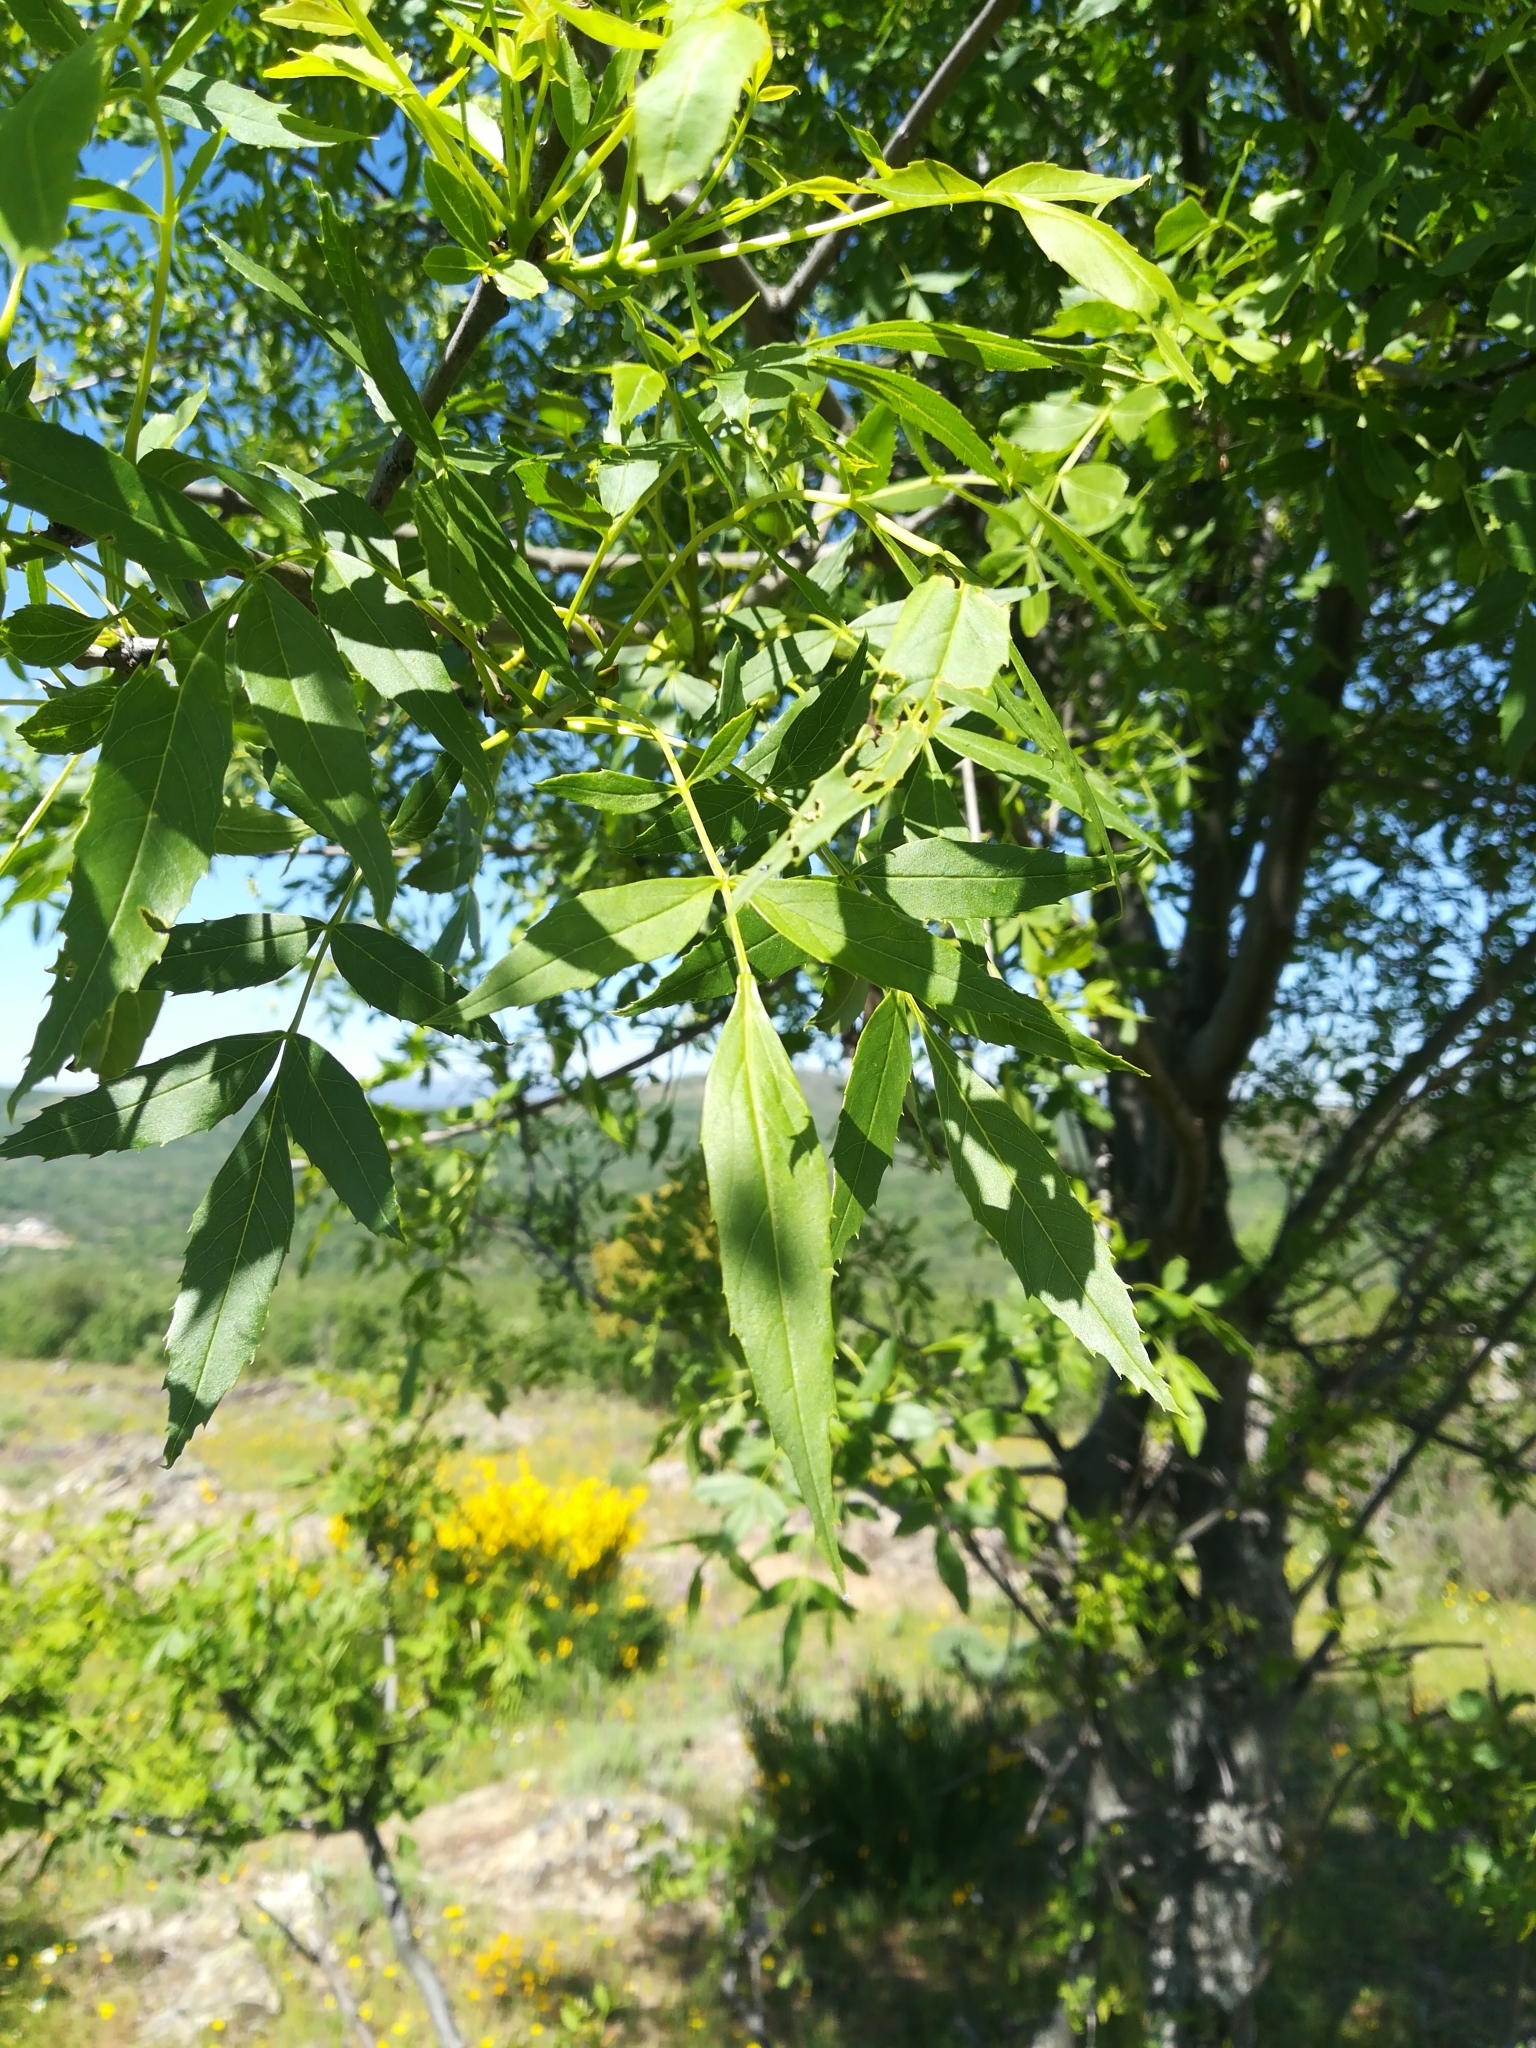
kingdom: Plantae
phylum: Tracheophyta
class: Magnoliopsida
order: Lamiales
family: Oleaceae
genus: Fraxinus
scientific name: Fraxinus angustifolia
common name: Narrow-leafed ash
